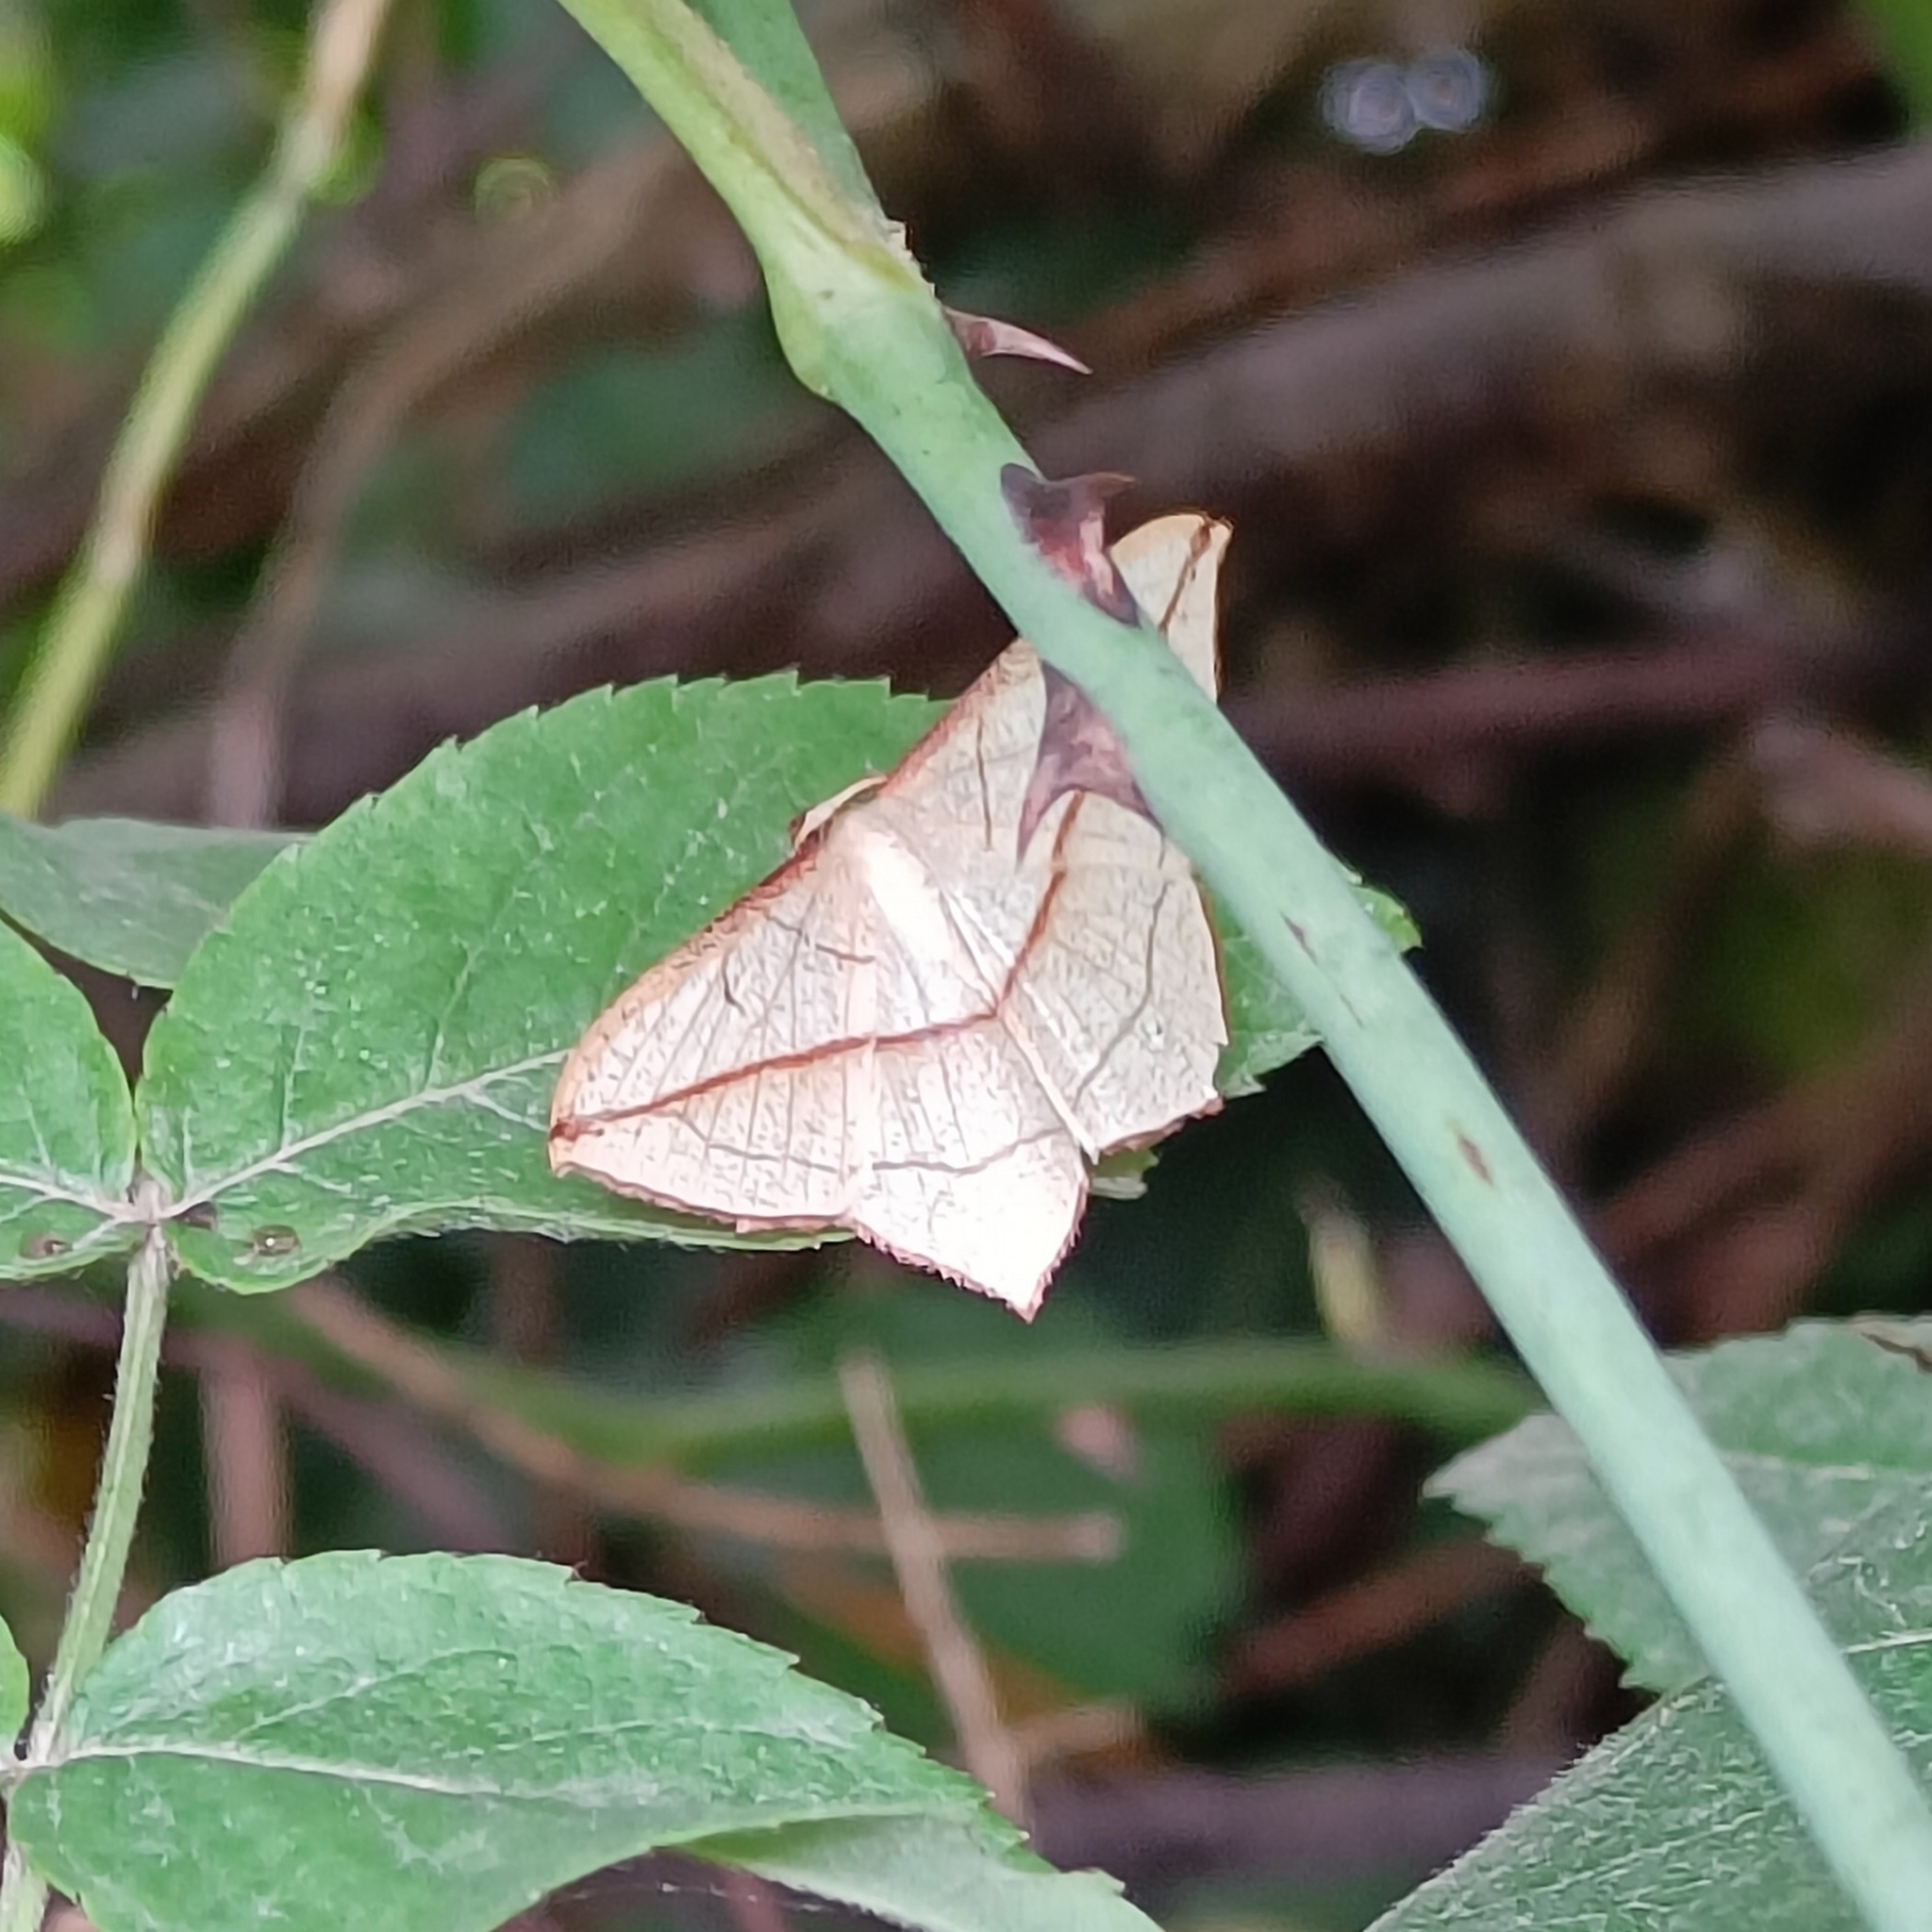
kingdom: Animalia
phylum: Arthropoda
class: Insecta
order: Lepidoptera
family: Geometridae
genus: Timandra
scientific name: Timandra correspondens
